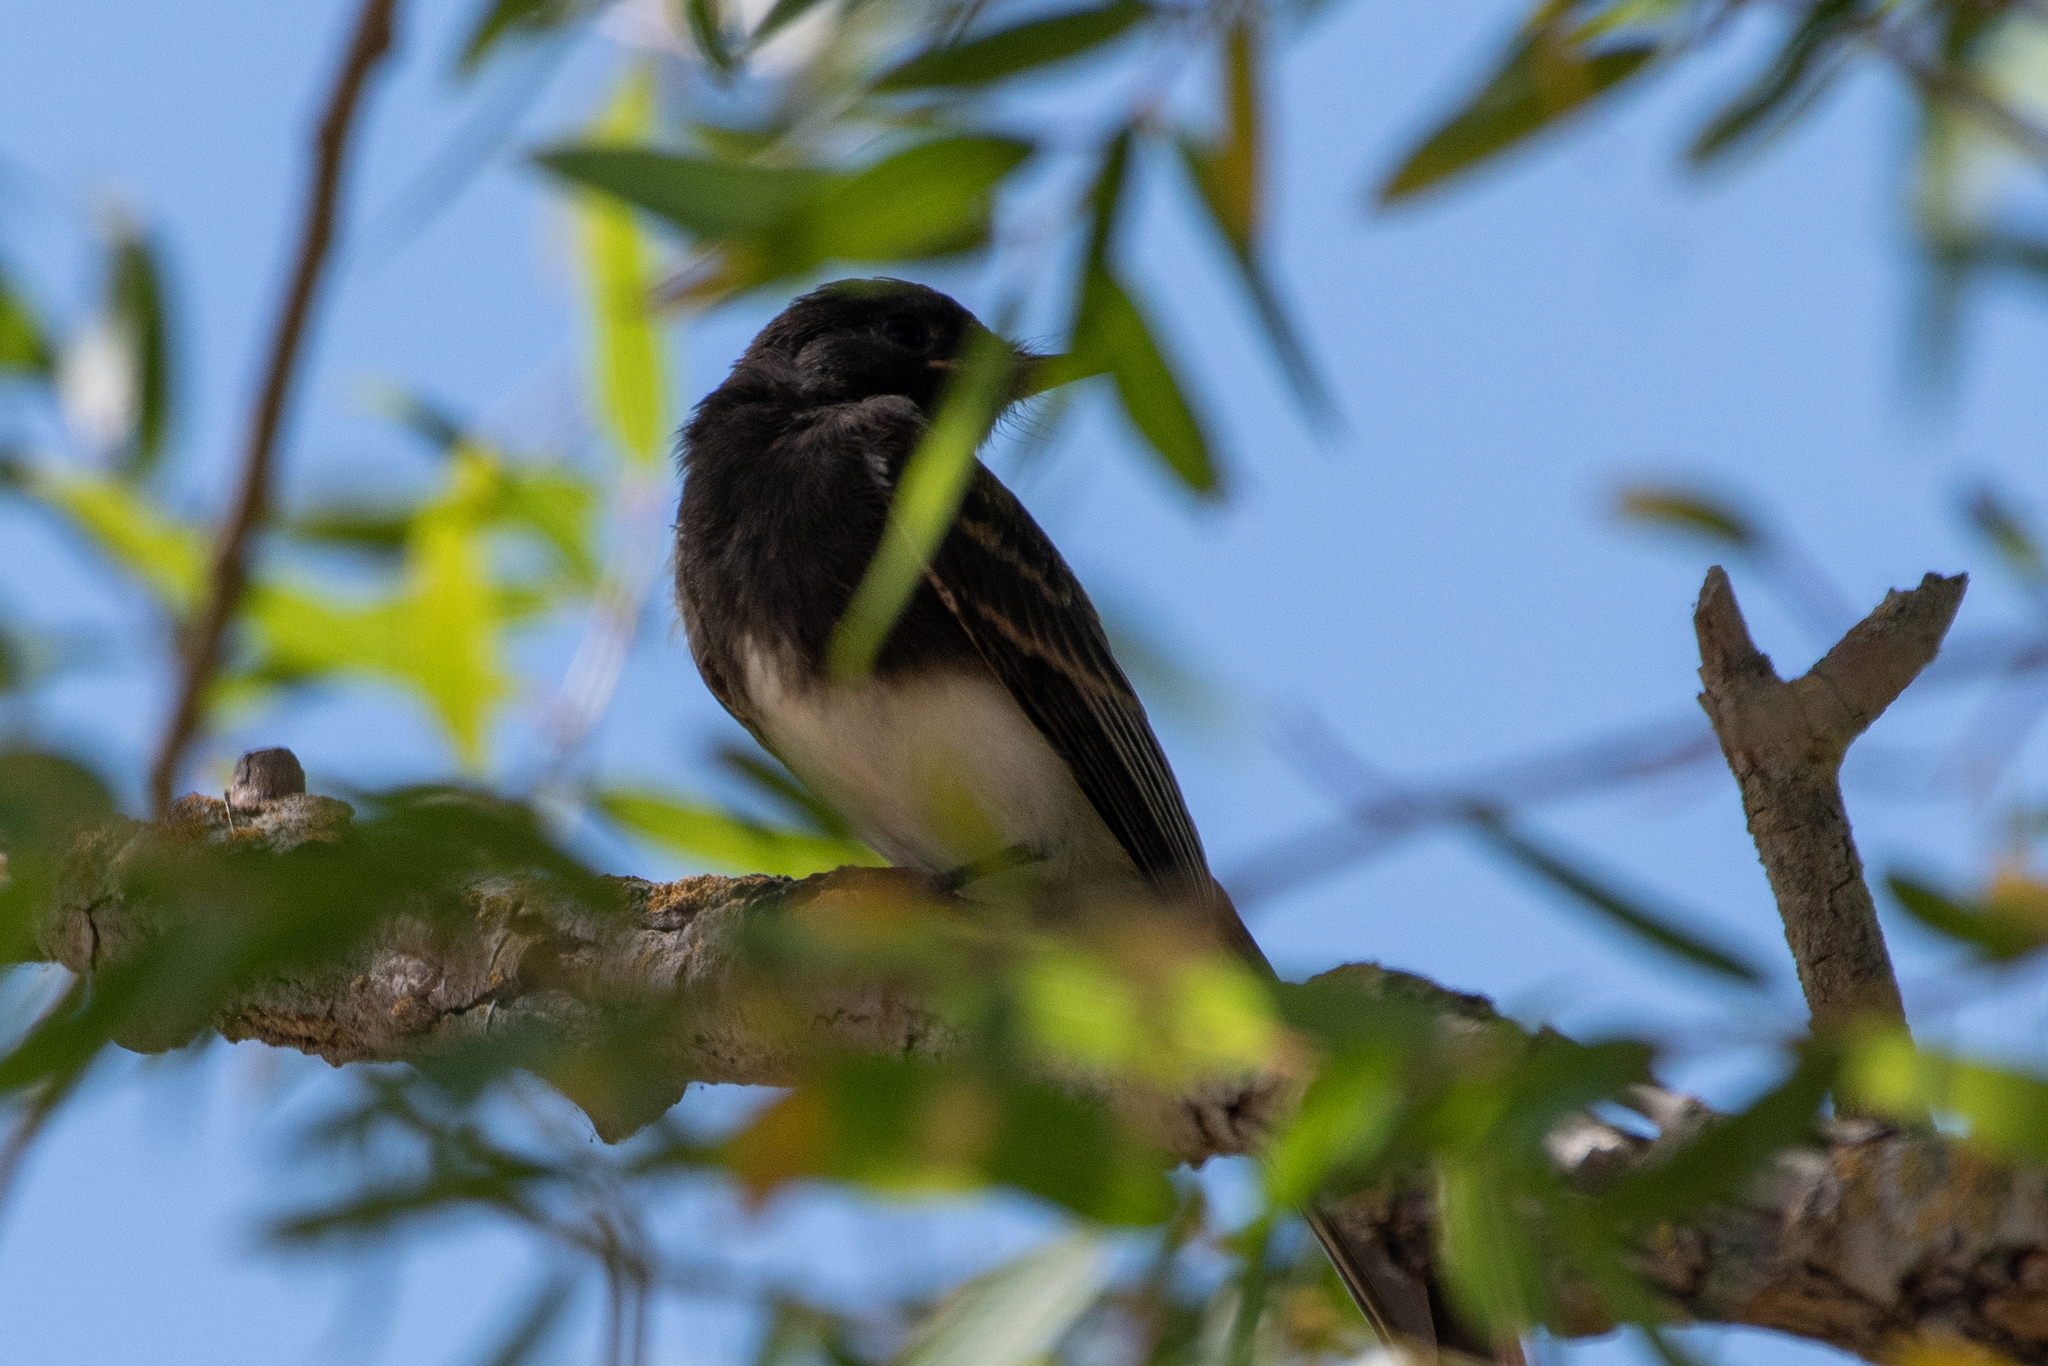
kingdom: Animalia
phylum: Chordata
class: Aves
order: Passeriformes
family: Tyrannidae
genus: Sayornis
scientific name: Sayornis nigricans
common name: Black phoebe
